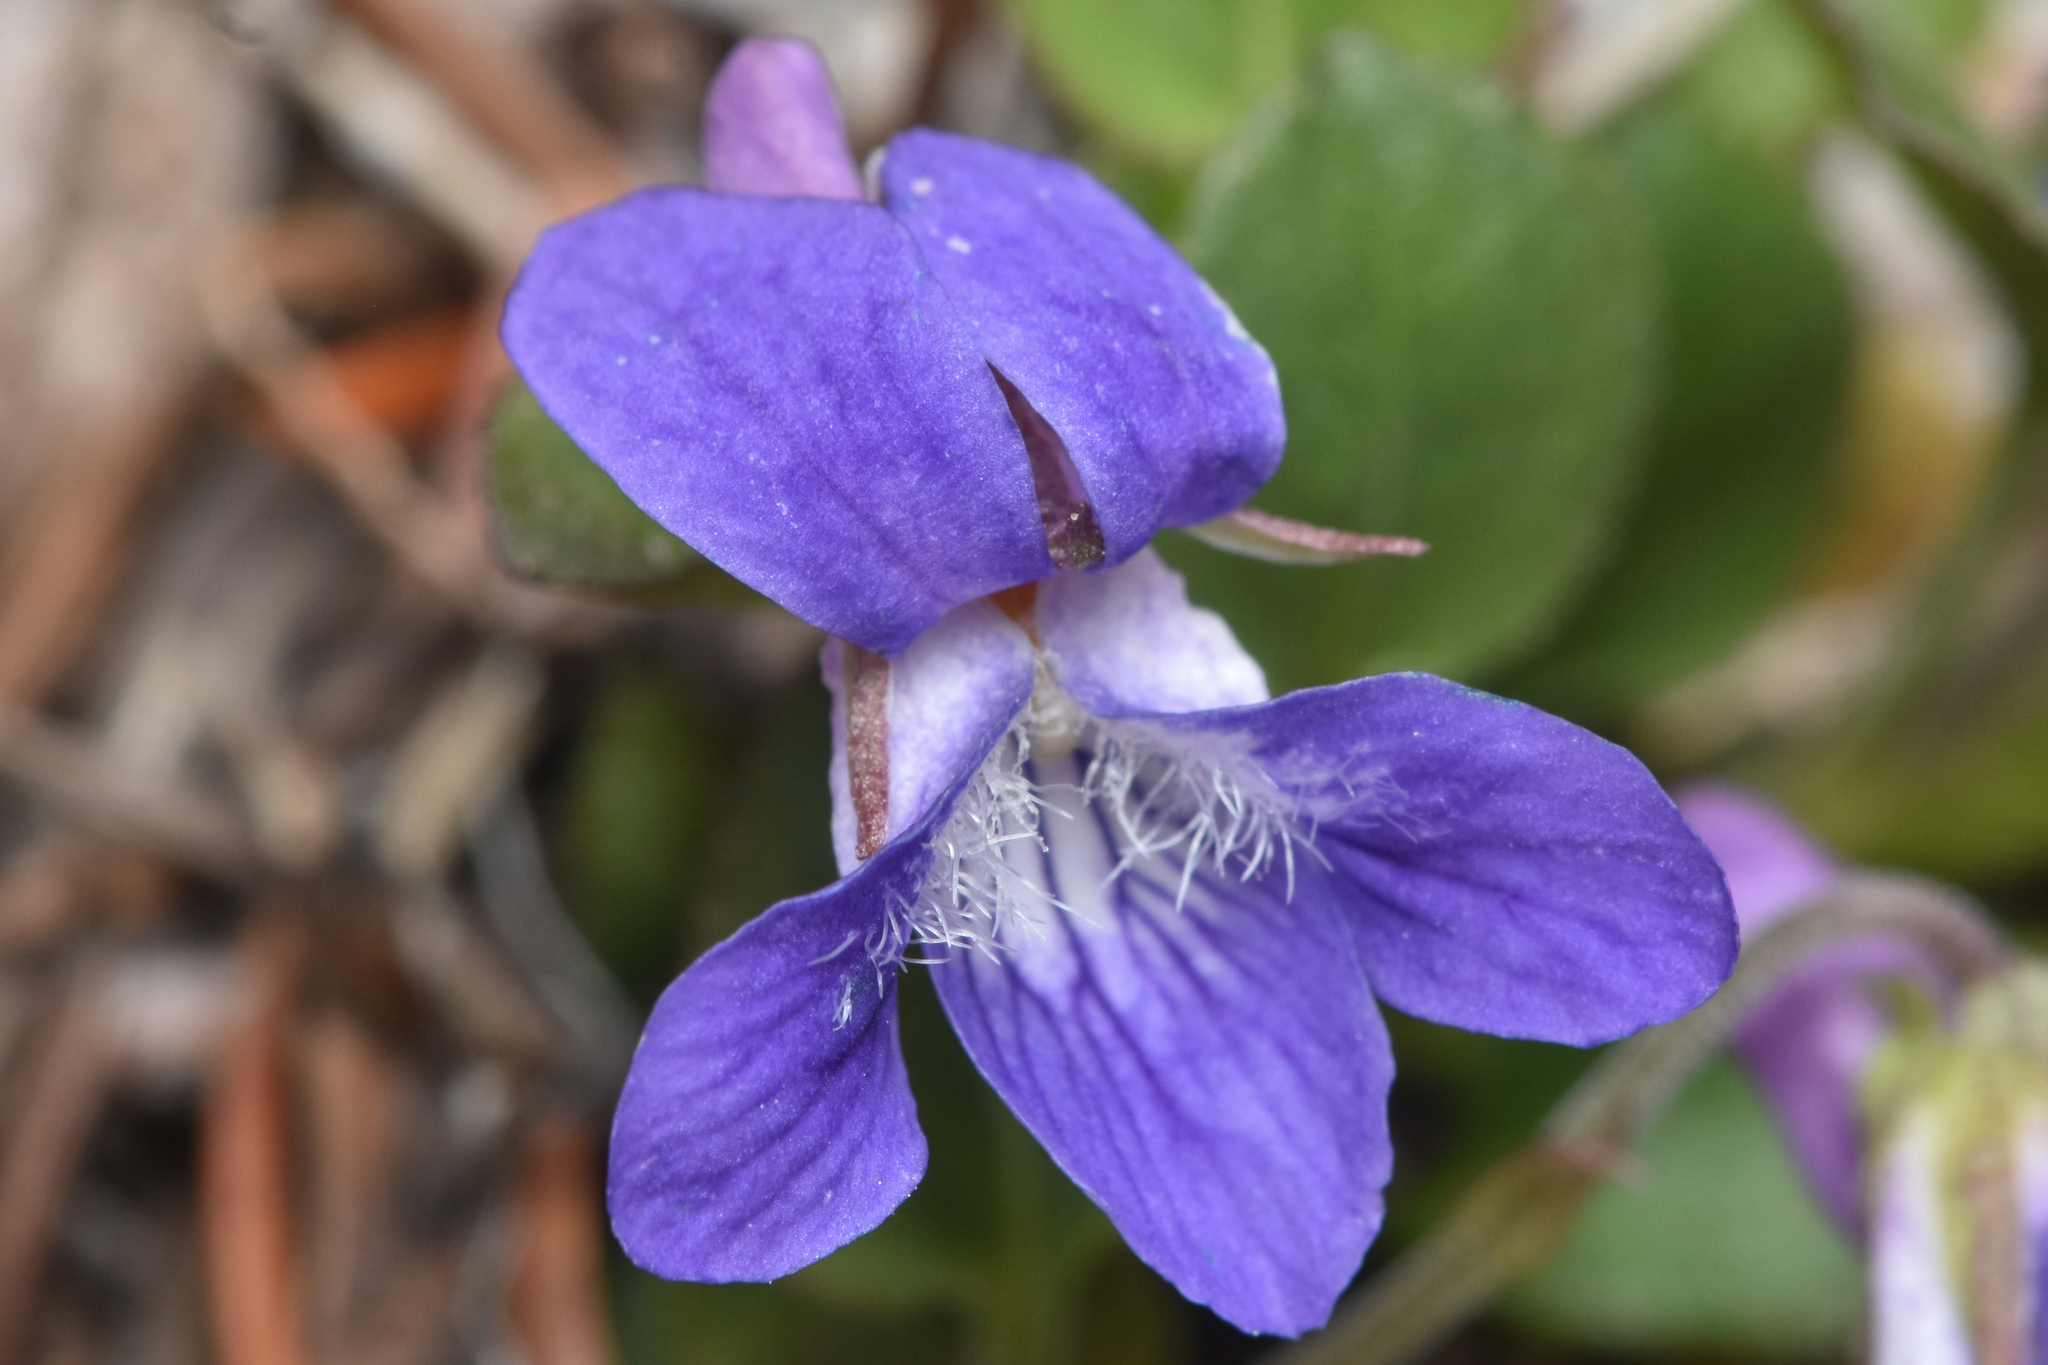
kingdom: Plantae
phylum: Tracheophyta
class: Magnoliopsida
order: Malpighiales
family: Violaceae
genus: Viola
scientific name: Viola adunca
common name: Sand violet
